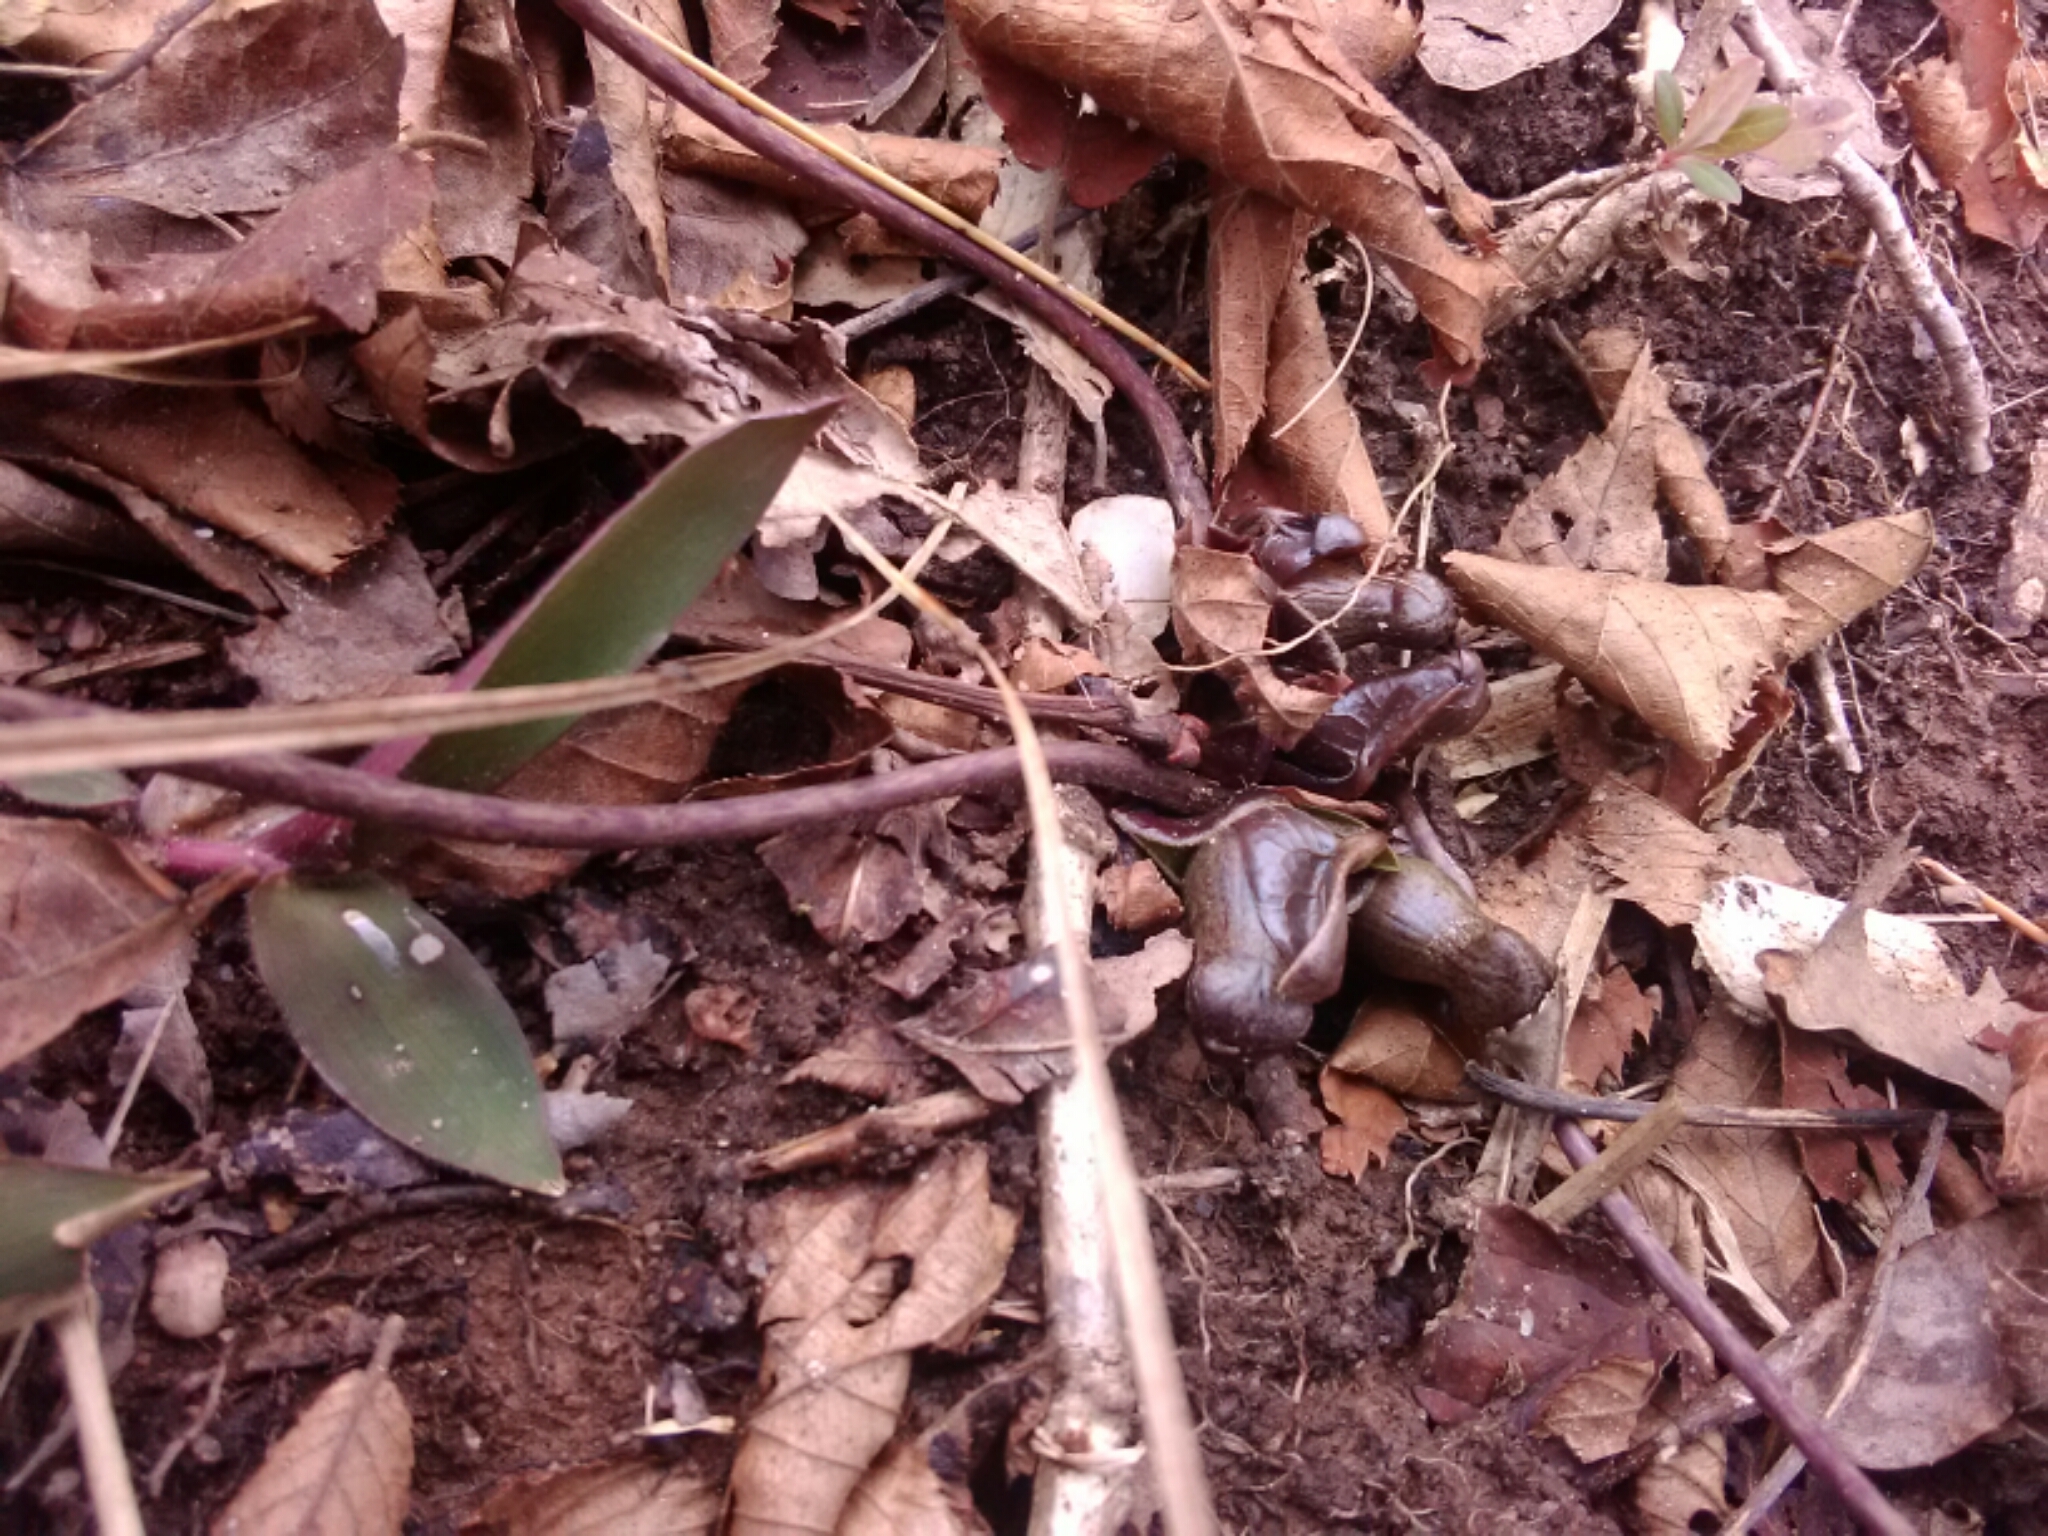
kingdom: Plantae
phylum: Tracheophyta
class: Magnoliopsida
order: Piperales
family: Aristolochiaceae
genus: Hexastylis
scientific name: Hexastylis arifolia
